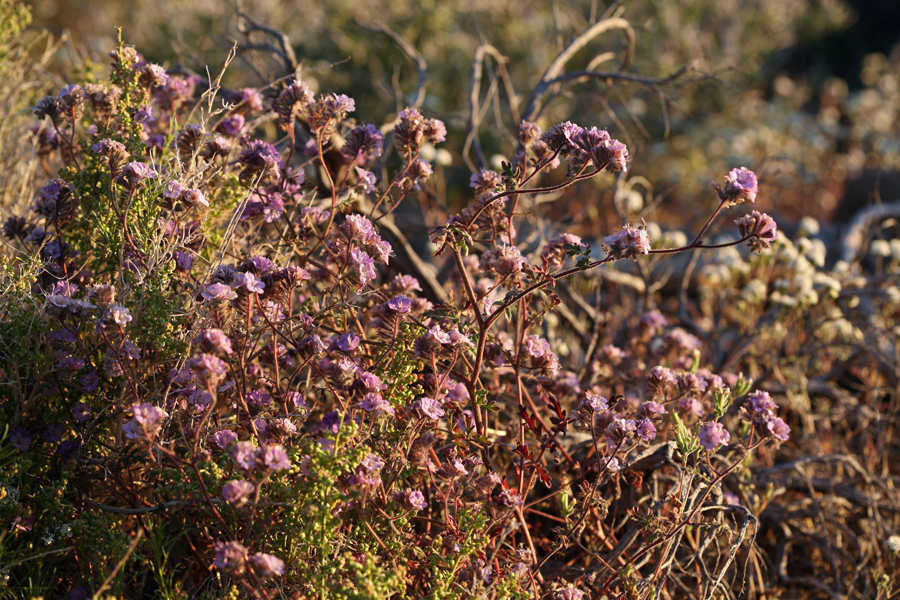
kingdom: Plantae
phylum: Tracheophyta
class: Magnoliopsida
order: Boraginales
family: Hydrophyllaceae
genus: Phacelia
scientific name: Phacelia vallis-mortae
